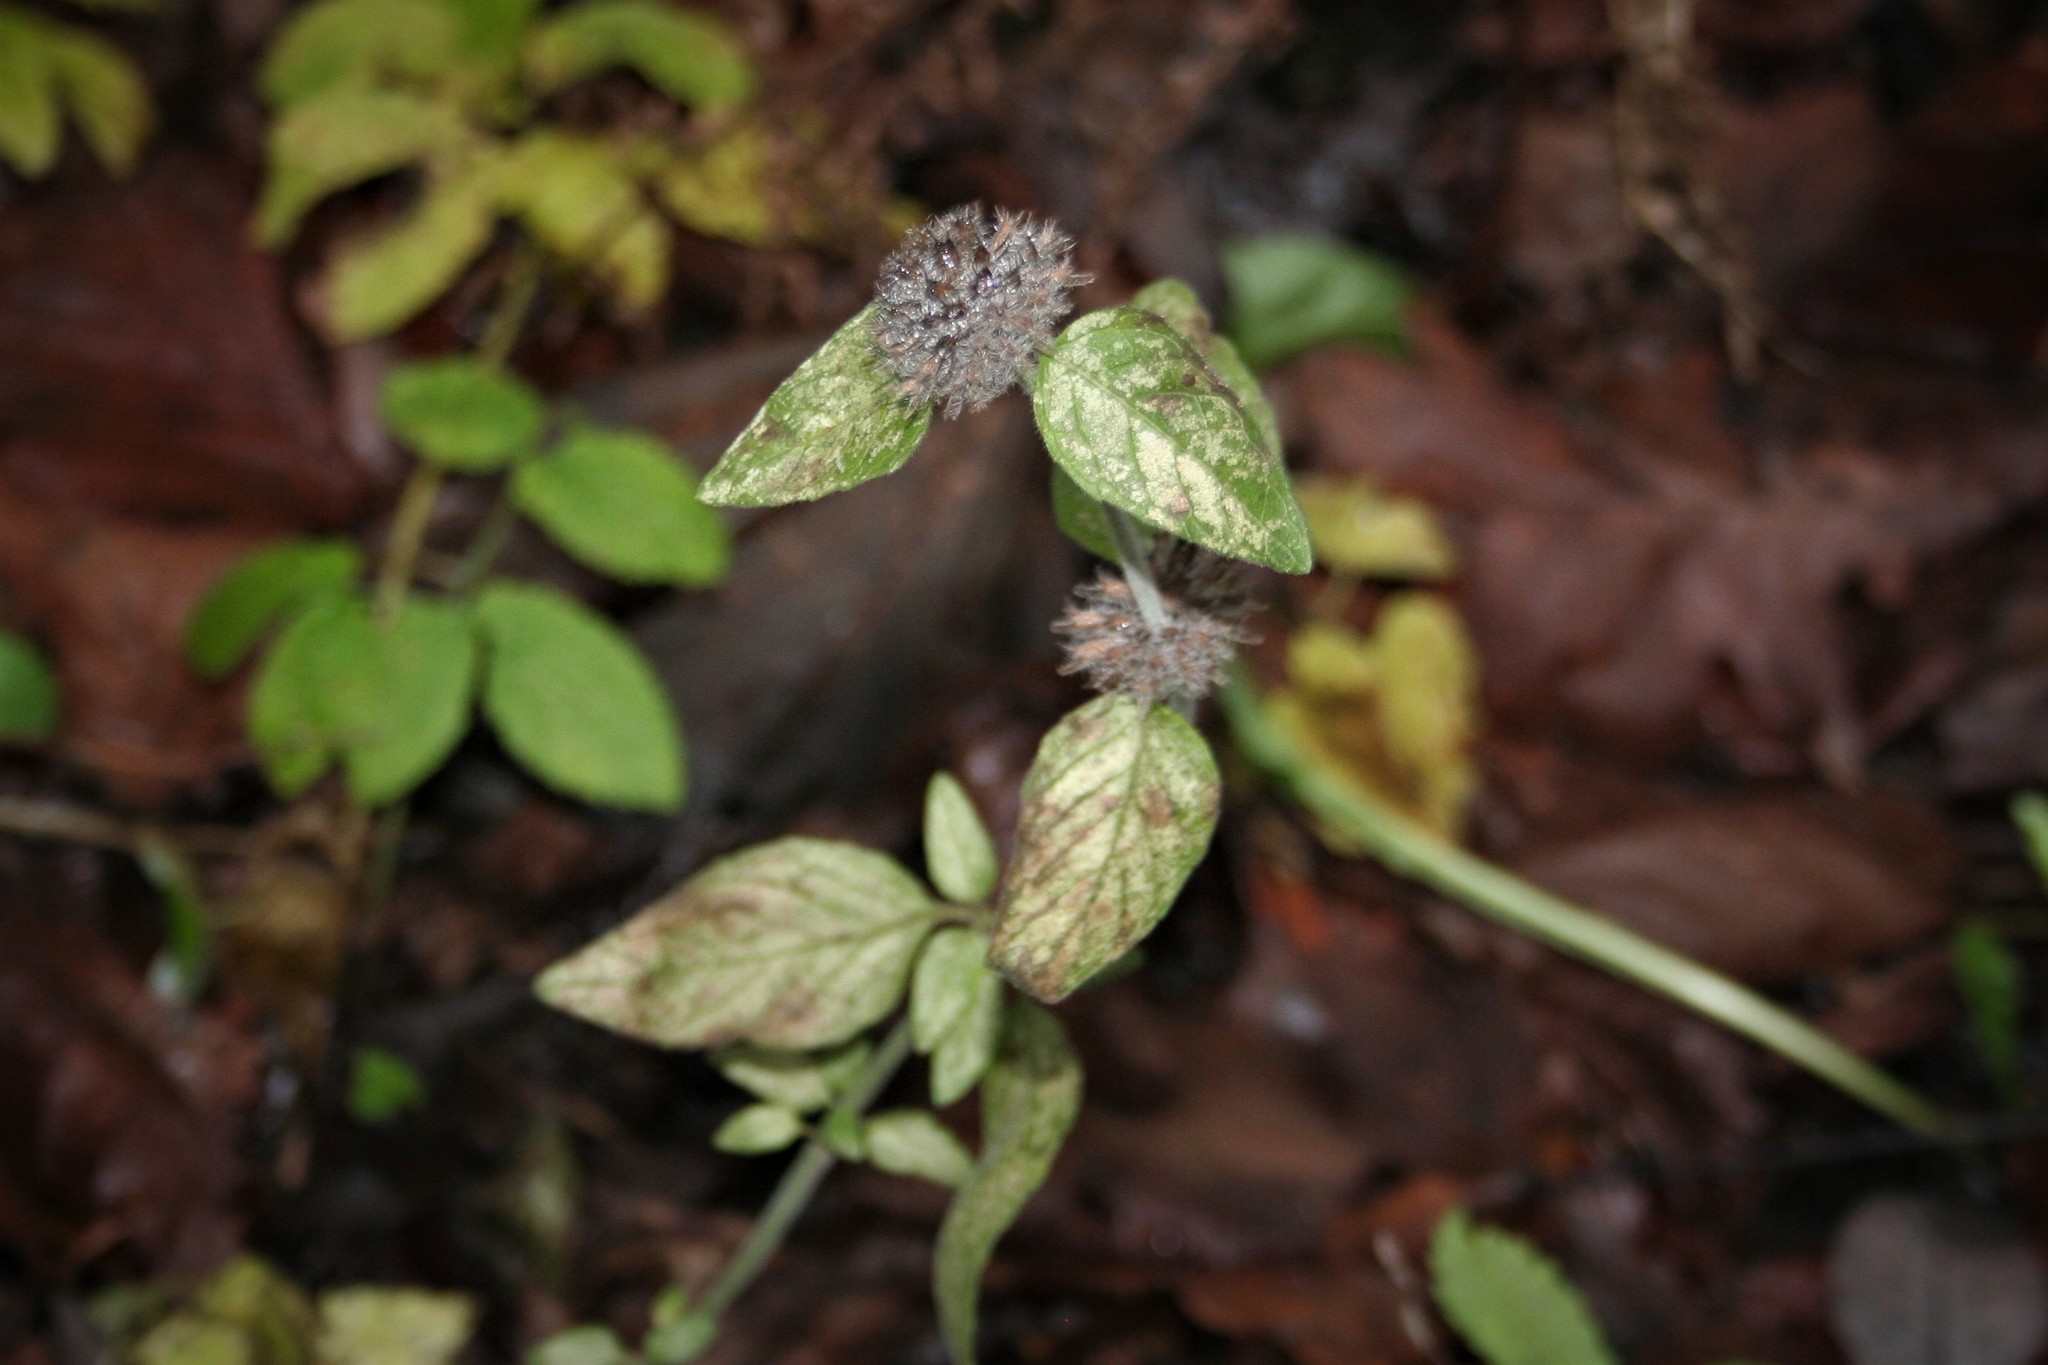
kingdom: Plantae
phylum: Tracheophyta
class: Magnoliopsida
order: Lamiales
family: Lamiaceae
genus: Clinopodium
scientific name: Clinopodium vulgare
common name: Wild basil
